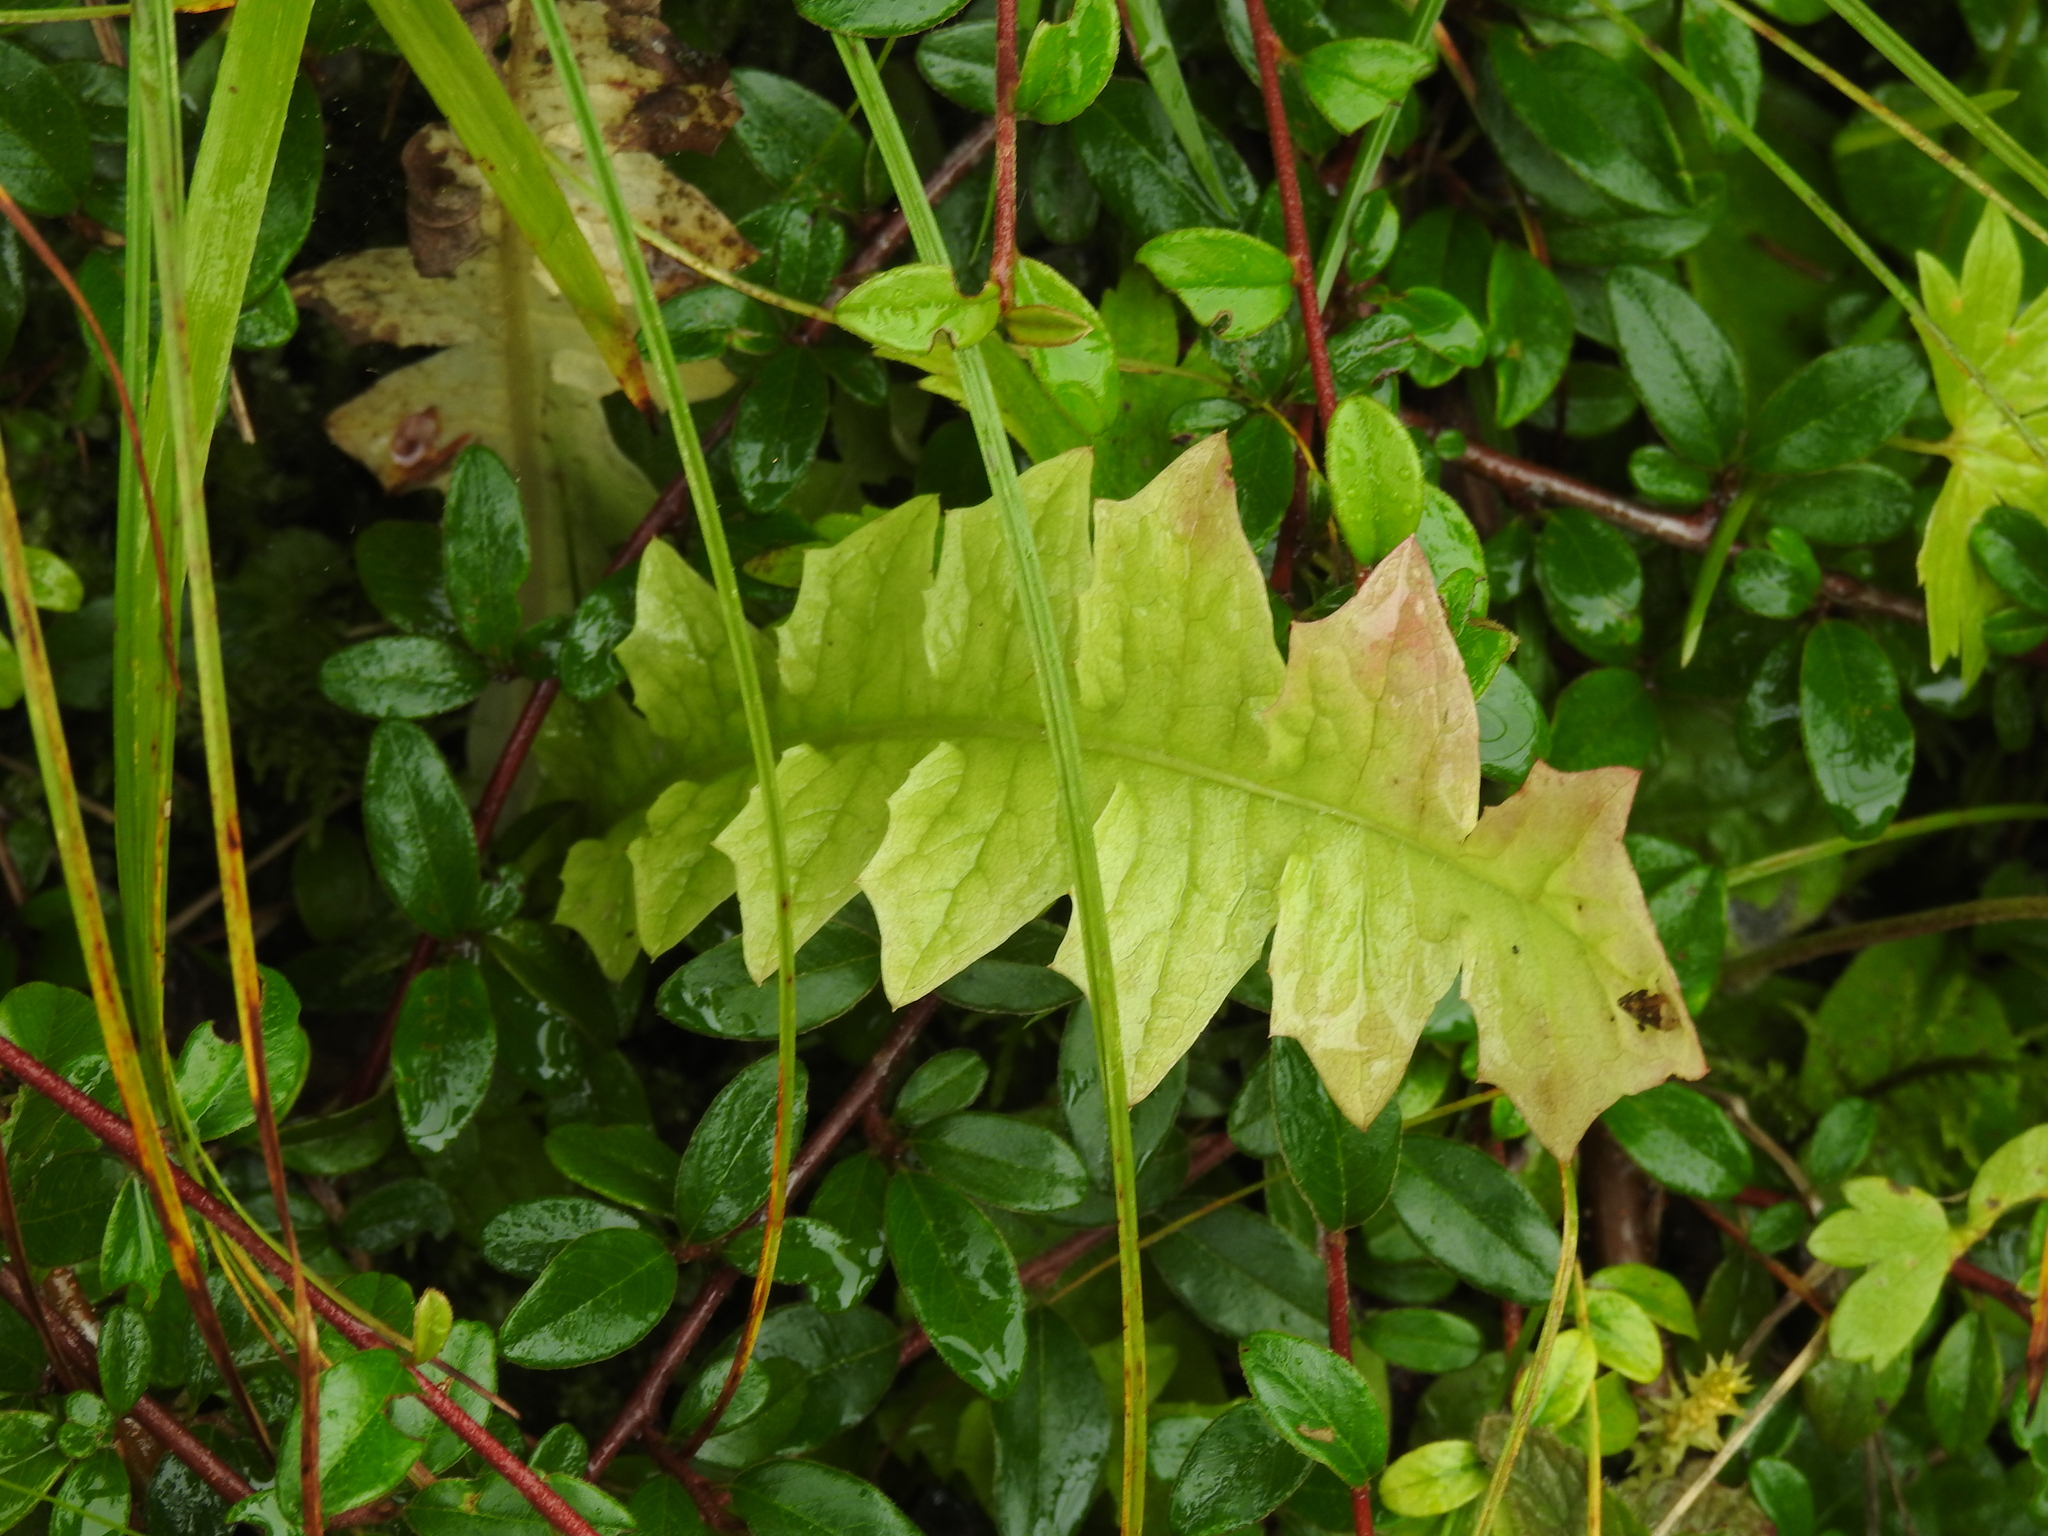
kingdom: Plantae
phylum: Tracheophyta
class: Magnoliopsida
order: Asterales
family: Asteraceae
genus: Aposeris
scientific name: Aposeris foetida
